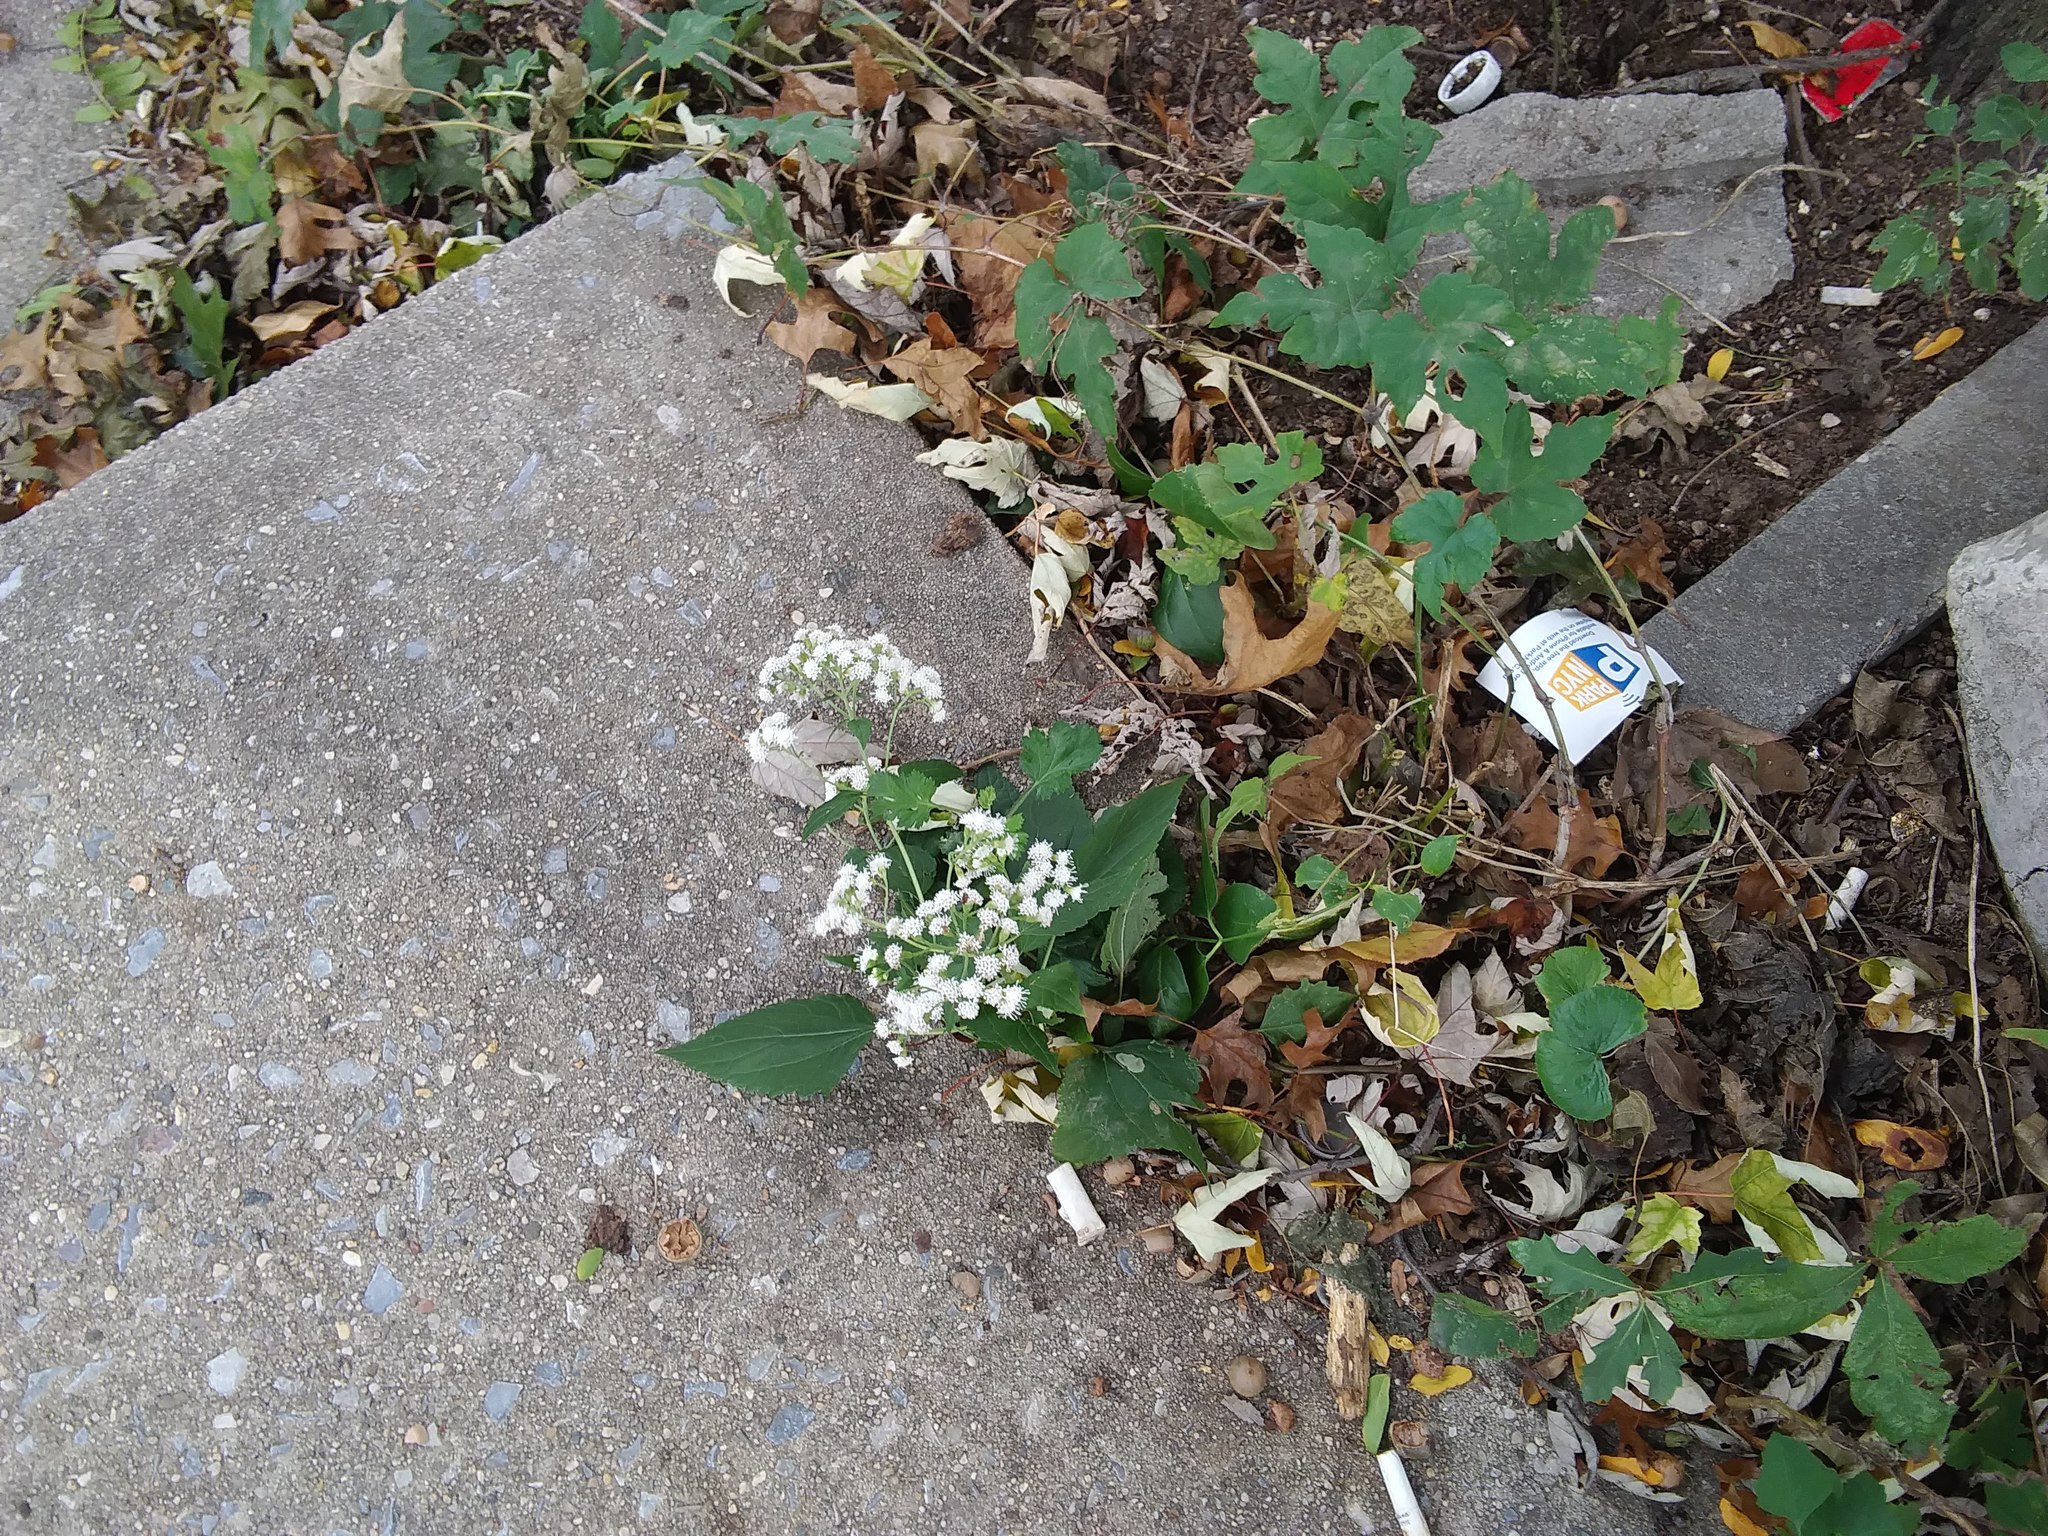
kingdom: Plantae
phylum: Tracheophyta
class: Magnoliopsida
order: Asterales
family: Asteraceae
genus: Ageratina
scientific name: Ageratina altissima
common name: White snakeroot
